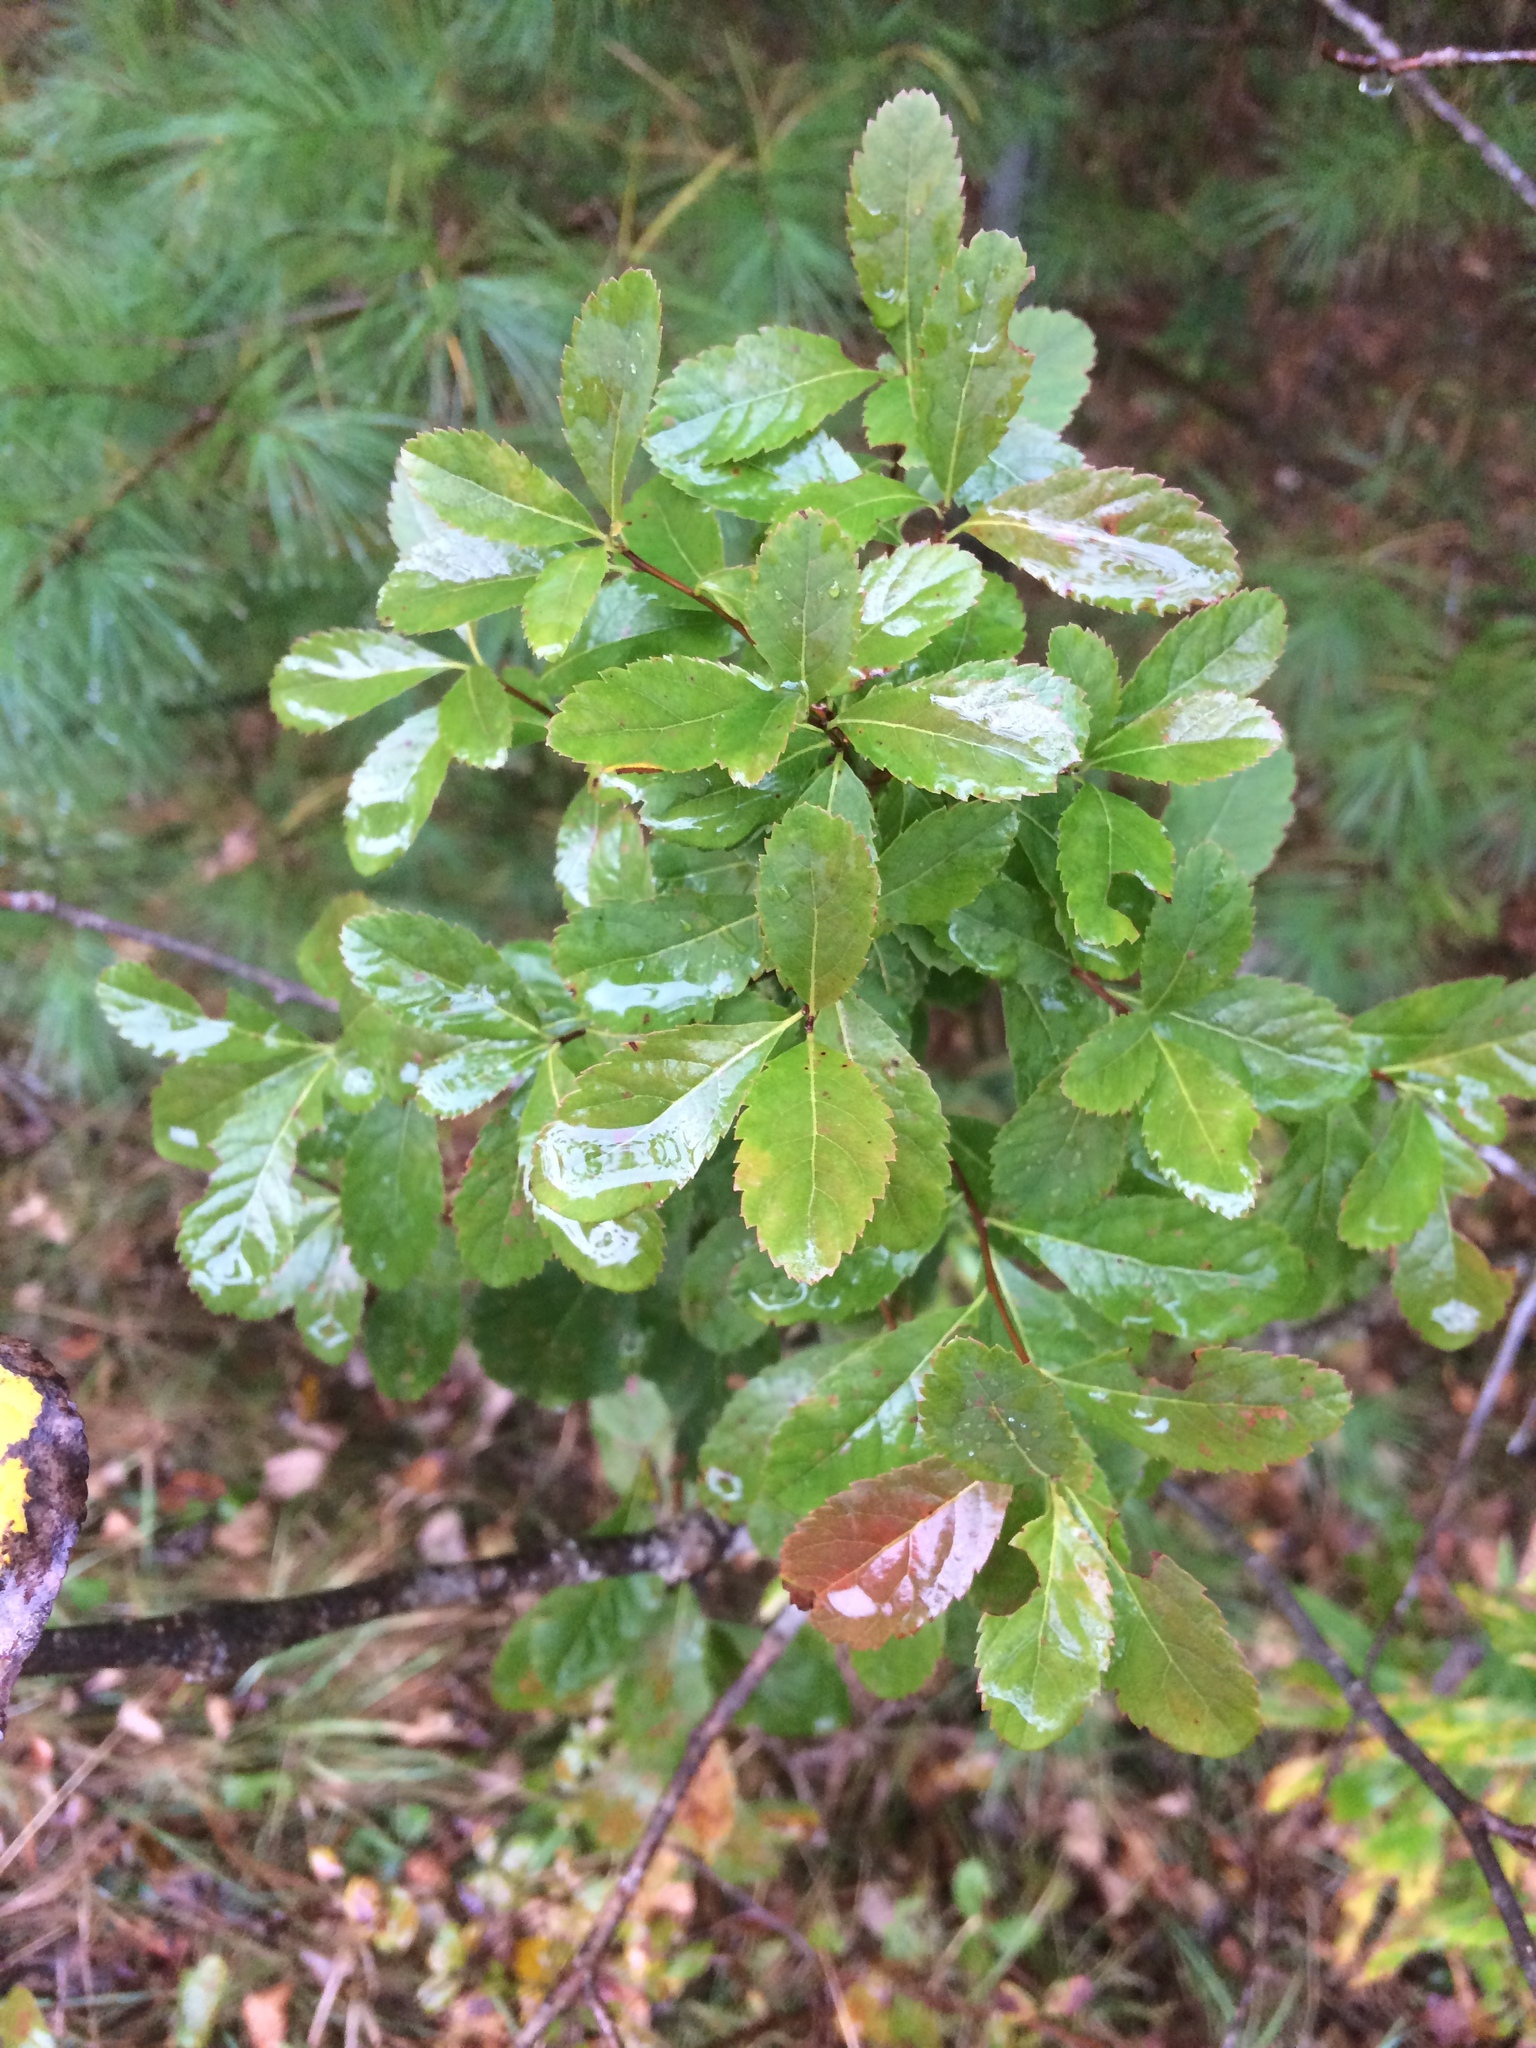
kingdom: Plantae
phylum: Tracheophyta
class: Magnoliopsida
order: Rosales
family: Rosaceae
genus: Spiraea
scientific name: Spiraea alba
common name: Pale bridewort
